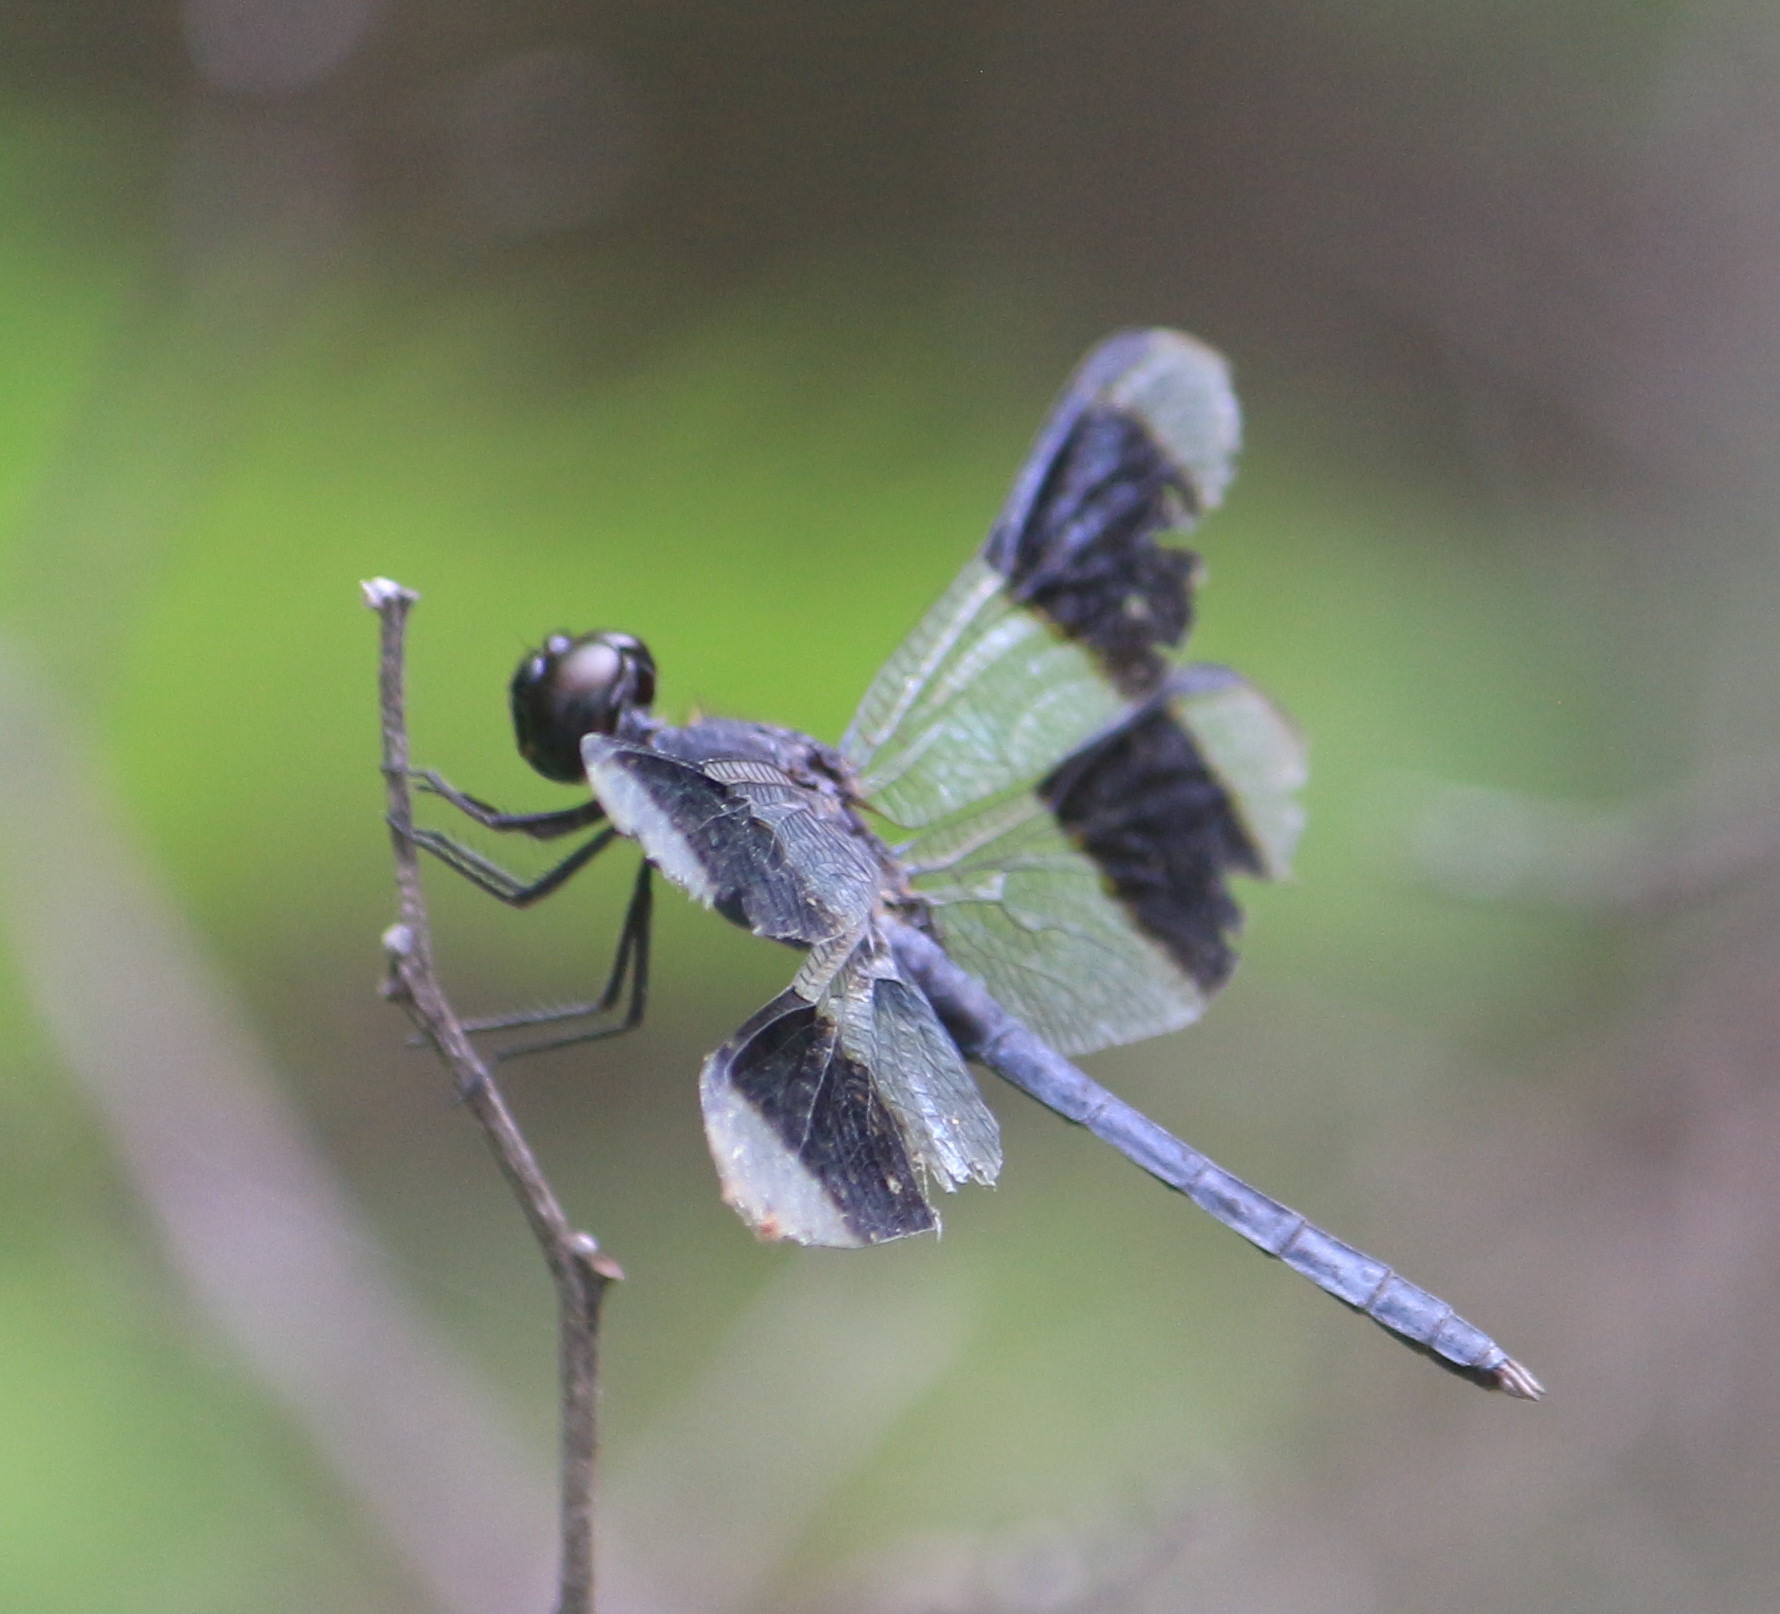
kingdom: Animalia
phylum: Arthropoda
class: Insecta
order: Odonata
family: Libellulidae
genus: Erythrodiplax
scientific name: Erythrodiplax umbrata
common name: Band-winged dragonlet
